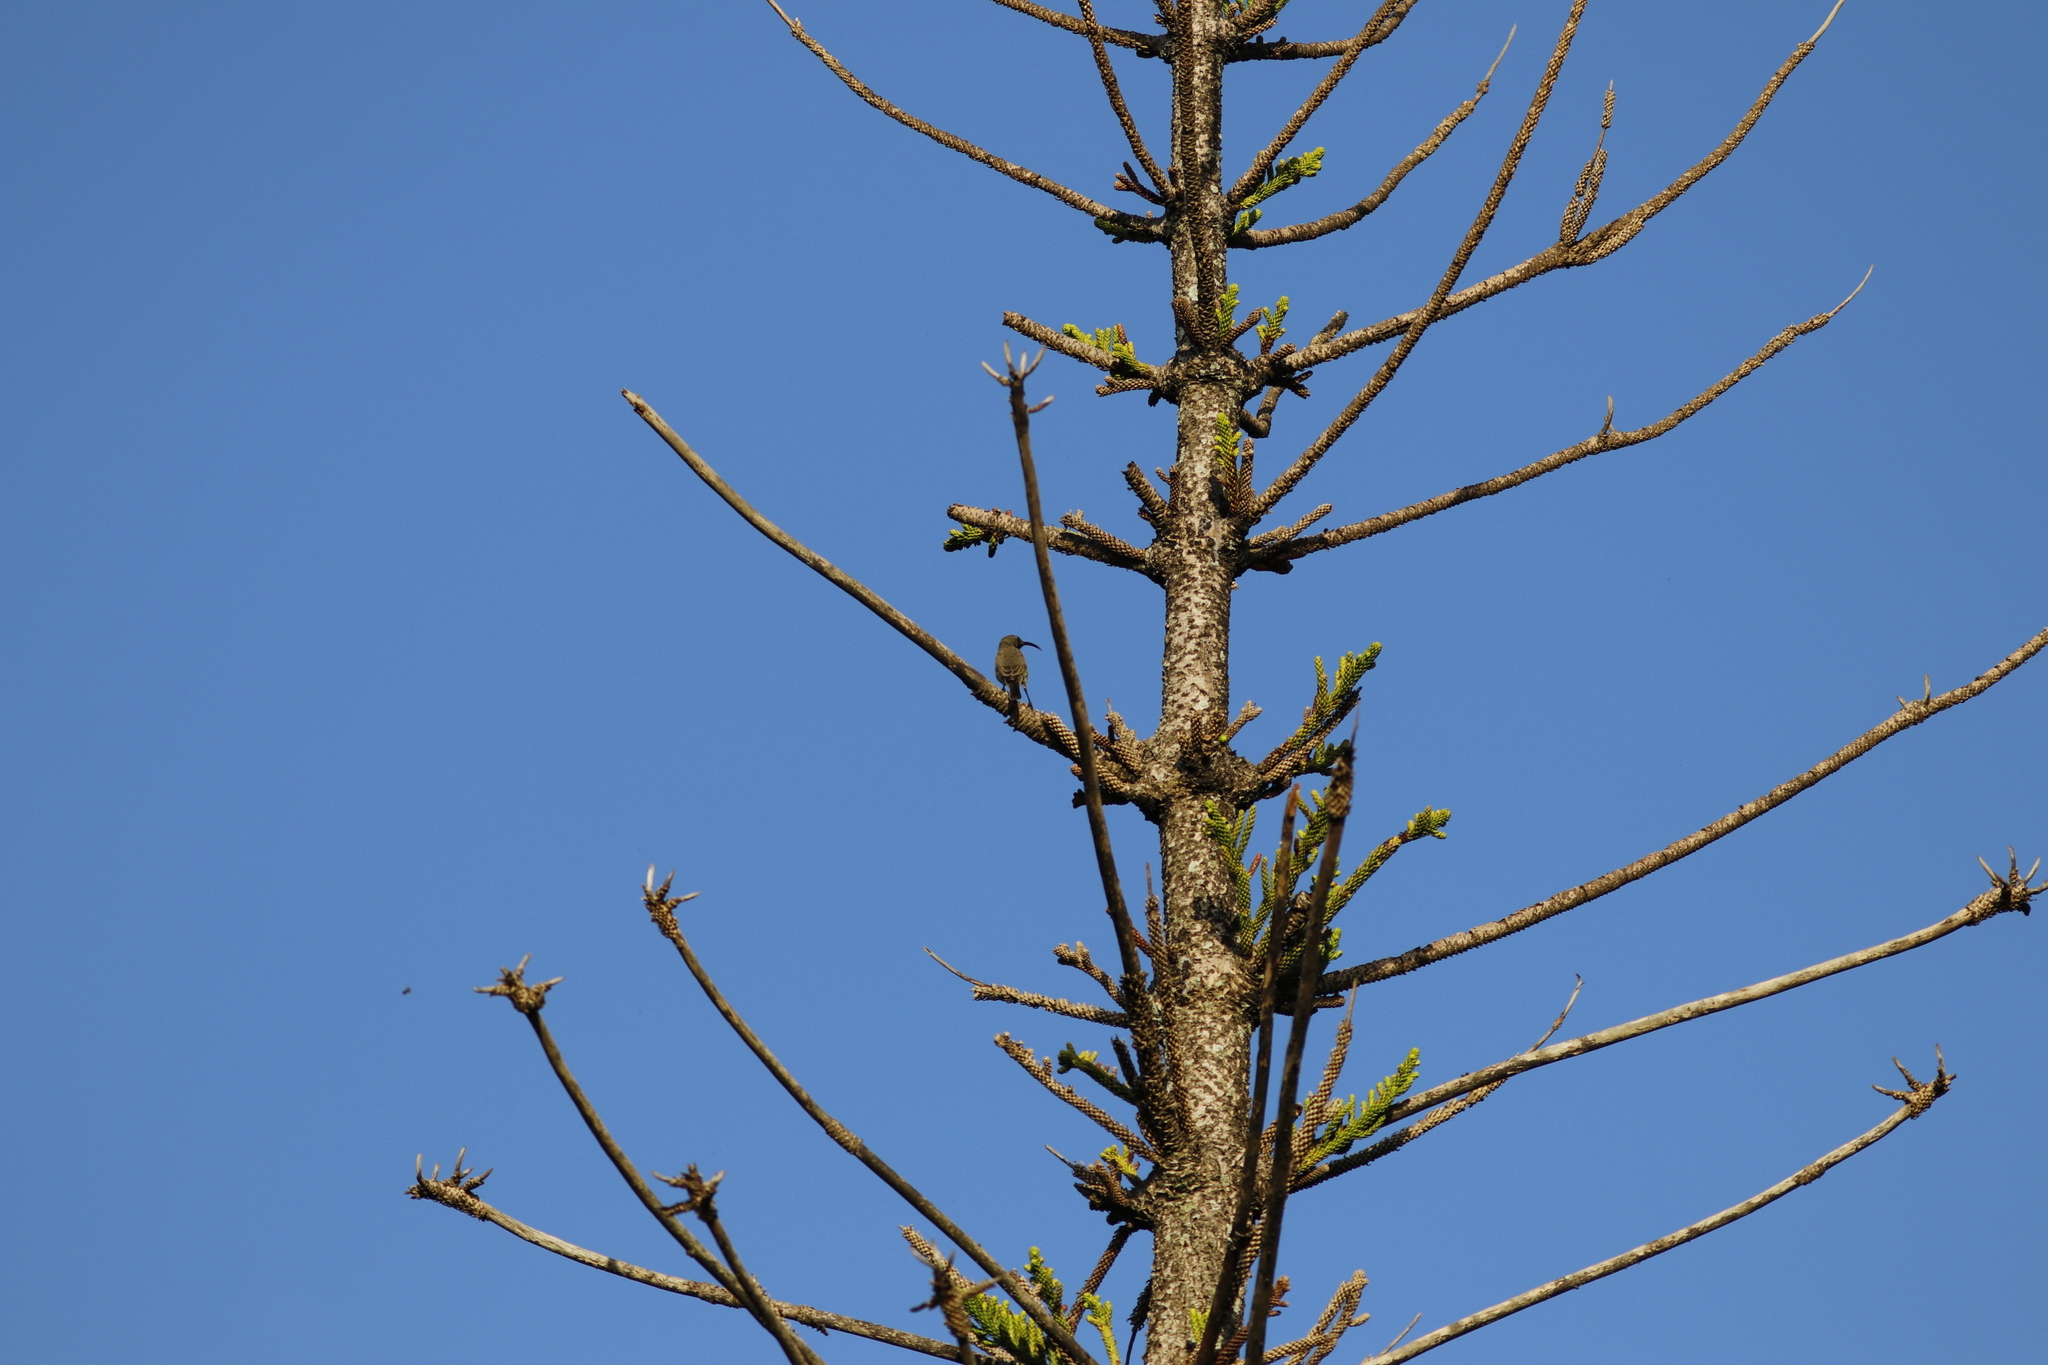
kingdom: Animalia
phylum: Chordata
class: Aves
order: Passeriformes
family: Nectariniidae
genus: Cyanomitra
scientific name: Cyanomitra olivacea
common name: Olive sunbird
